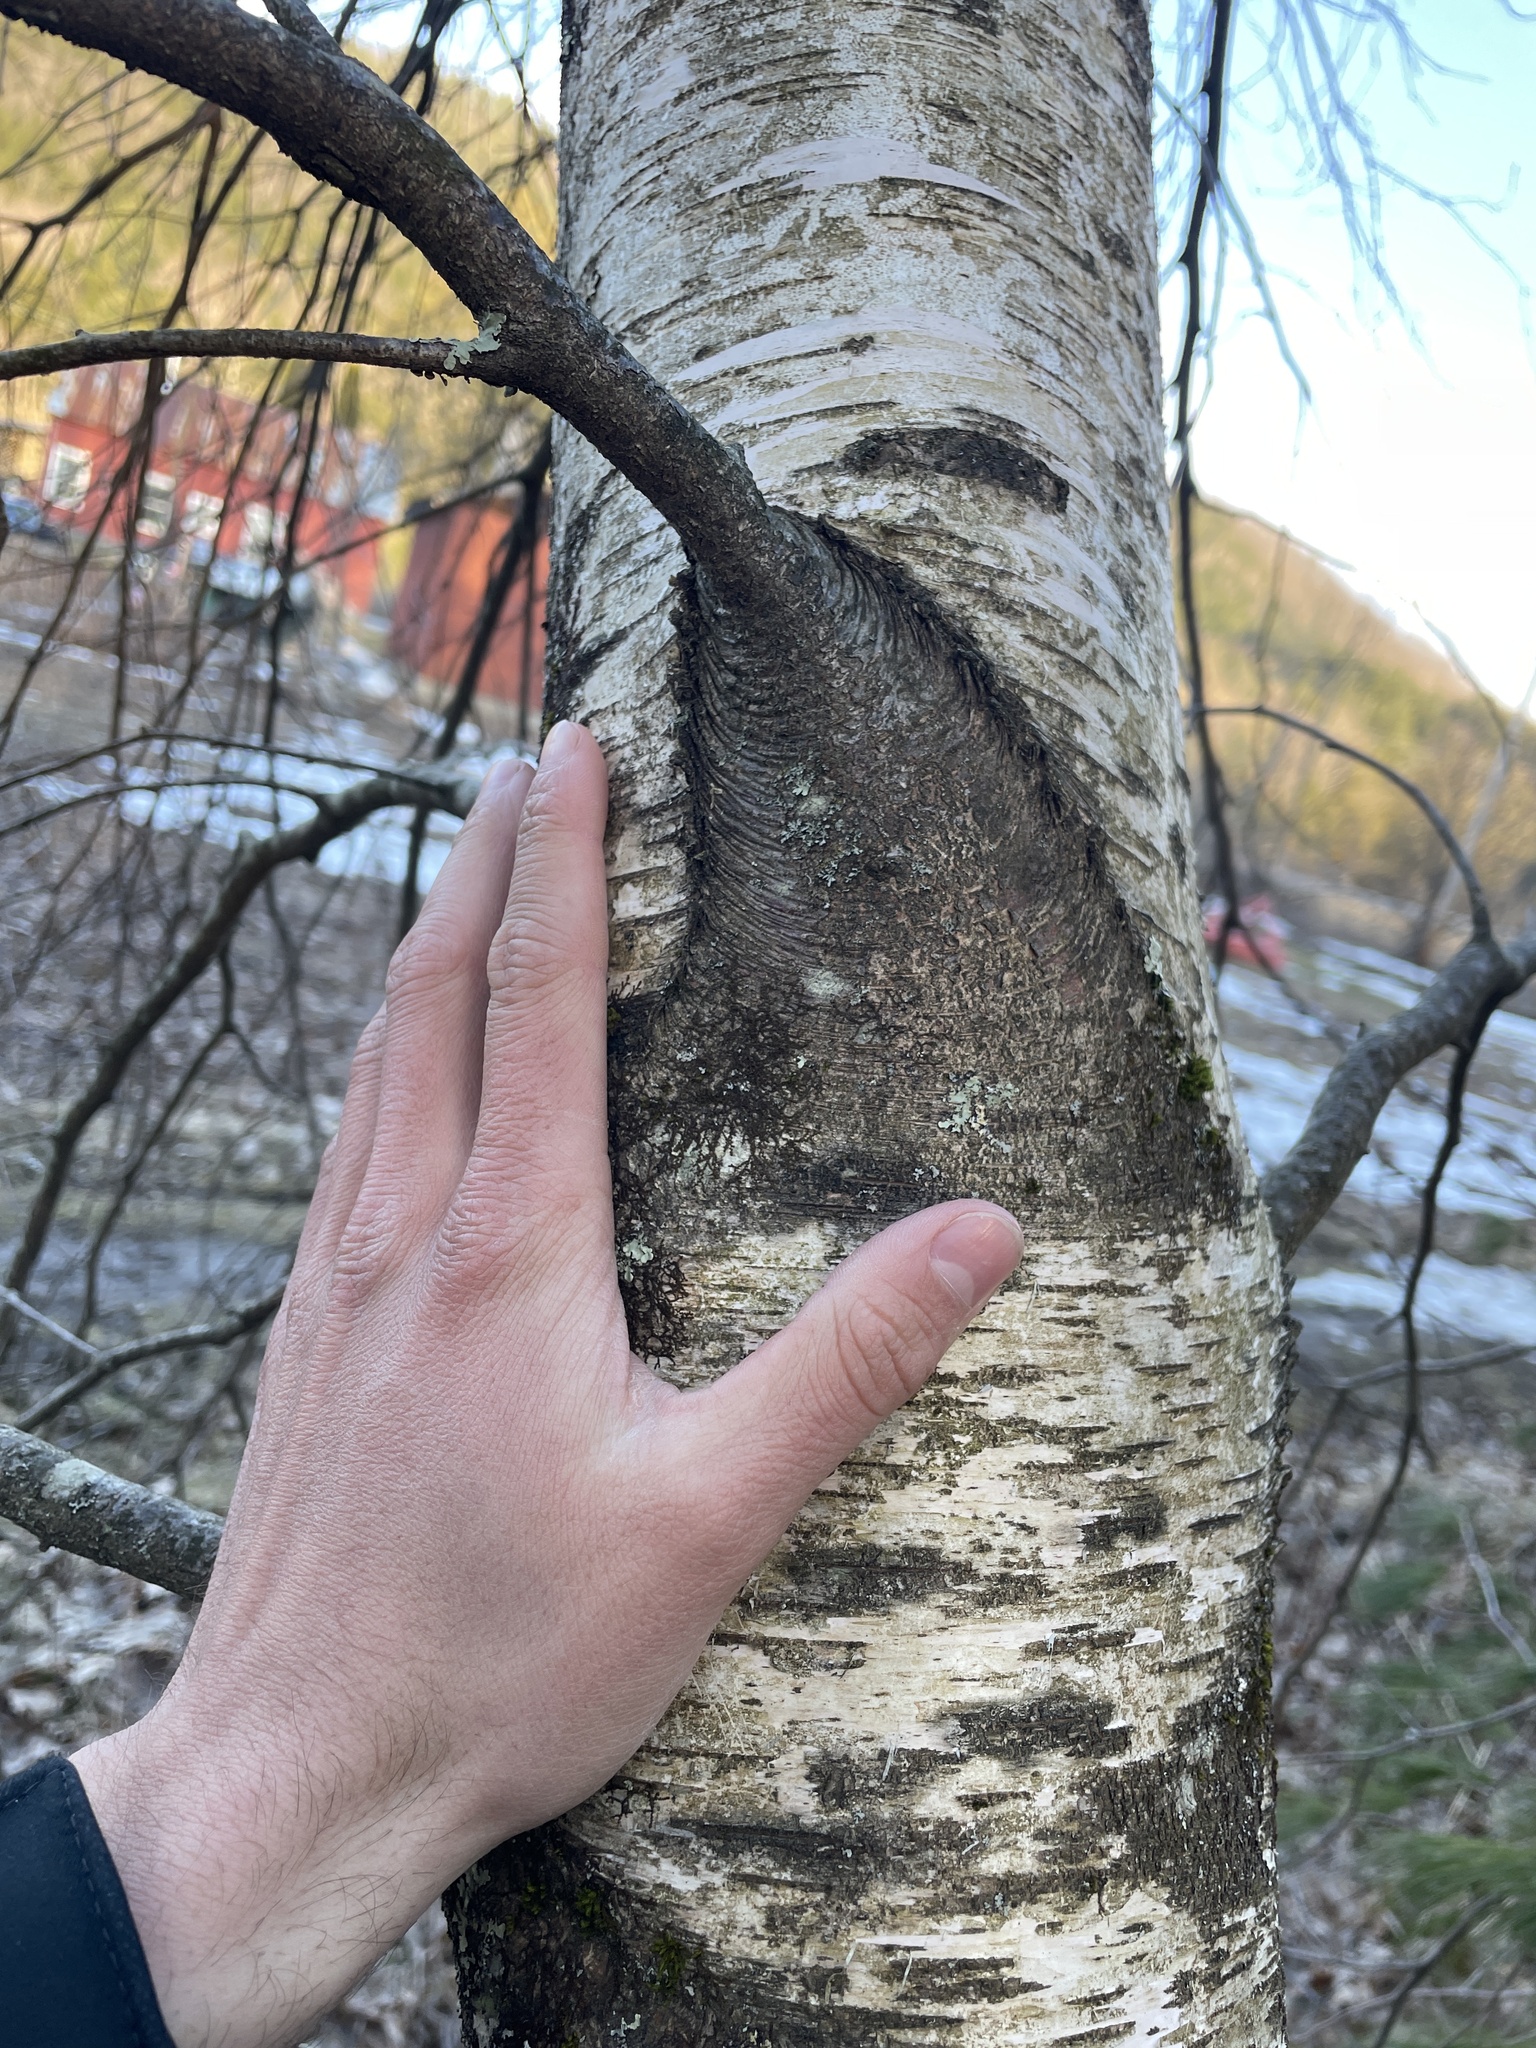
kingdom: Plantae
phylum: Tracheophyta
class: Magnoliopsida
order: Fagales
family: Betulaceae
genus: Betula
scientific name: Betula populifolia
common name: Fire birch
